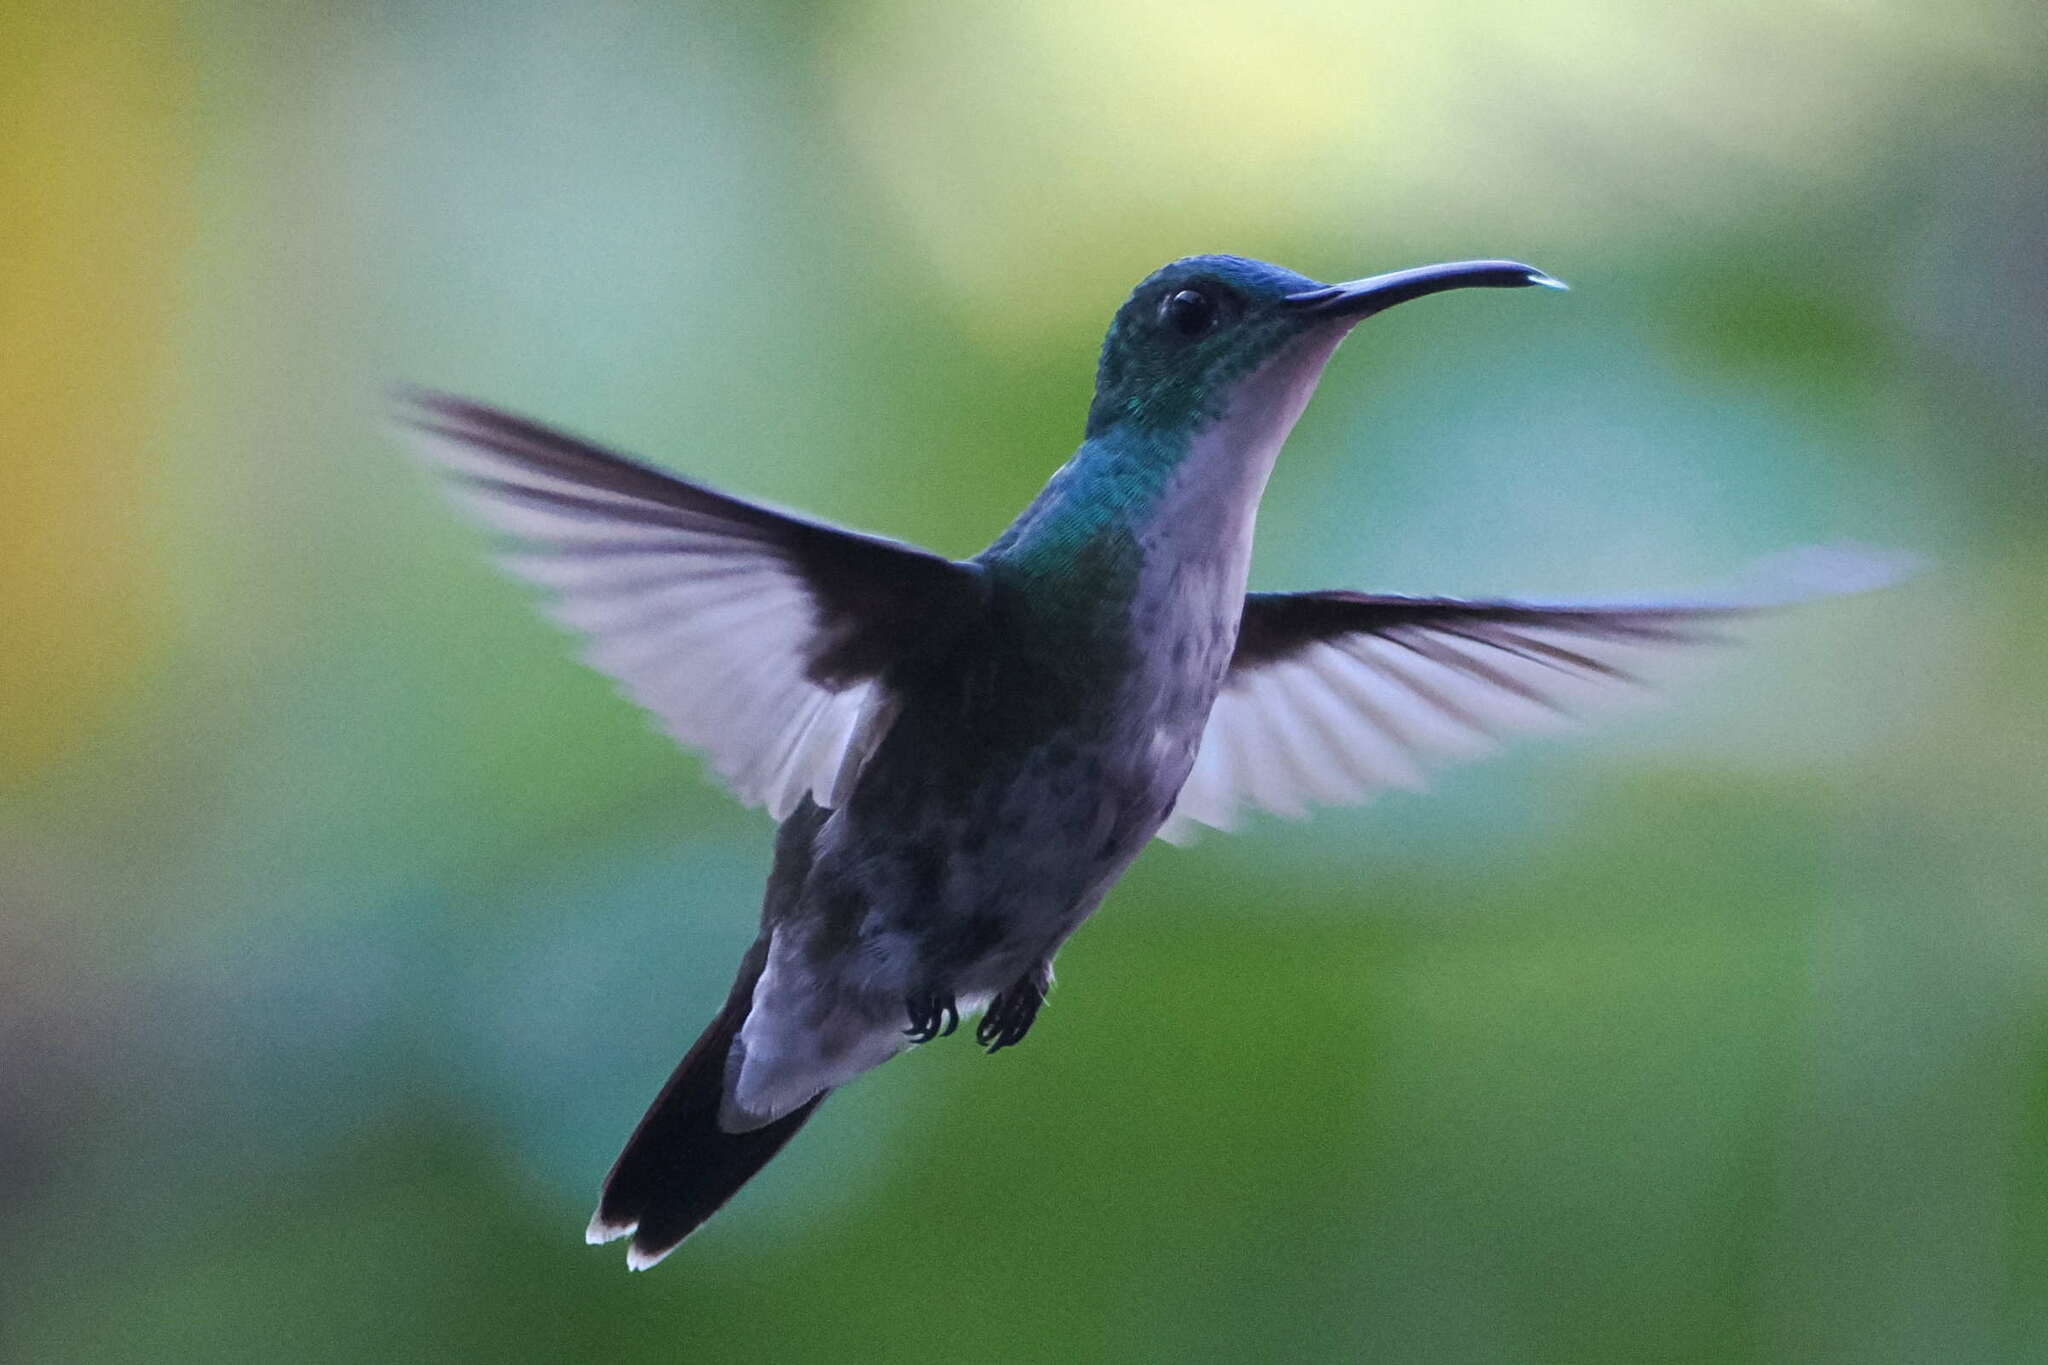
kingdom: Animalia
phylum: Chordata
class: Aves
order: Apodiformes
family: Trochilidae
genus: Chrysuronia
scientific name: Chrysuronia brevirostris
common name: White-chested emerald
